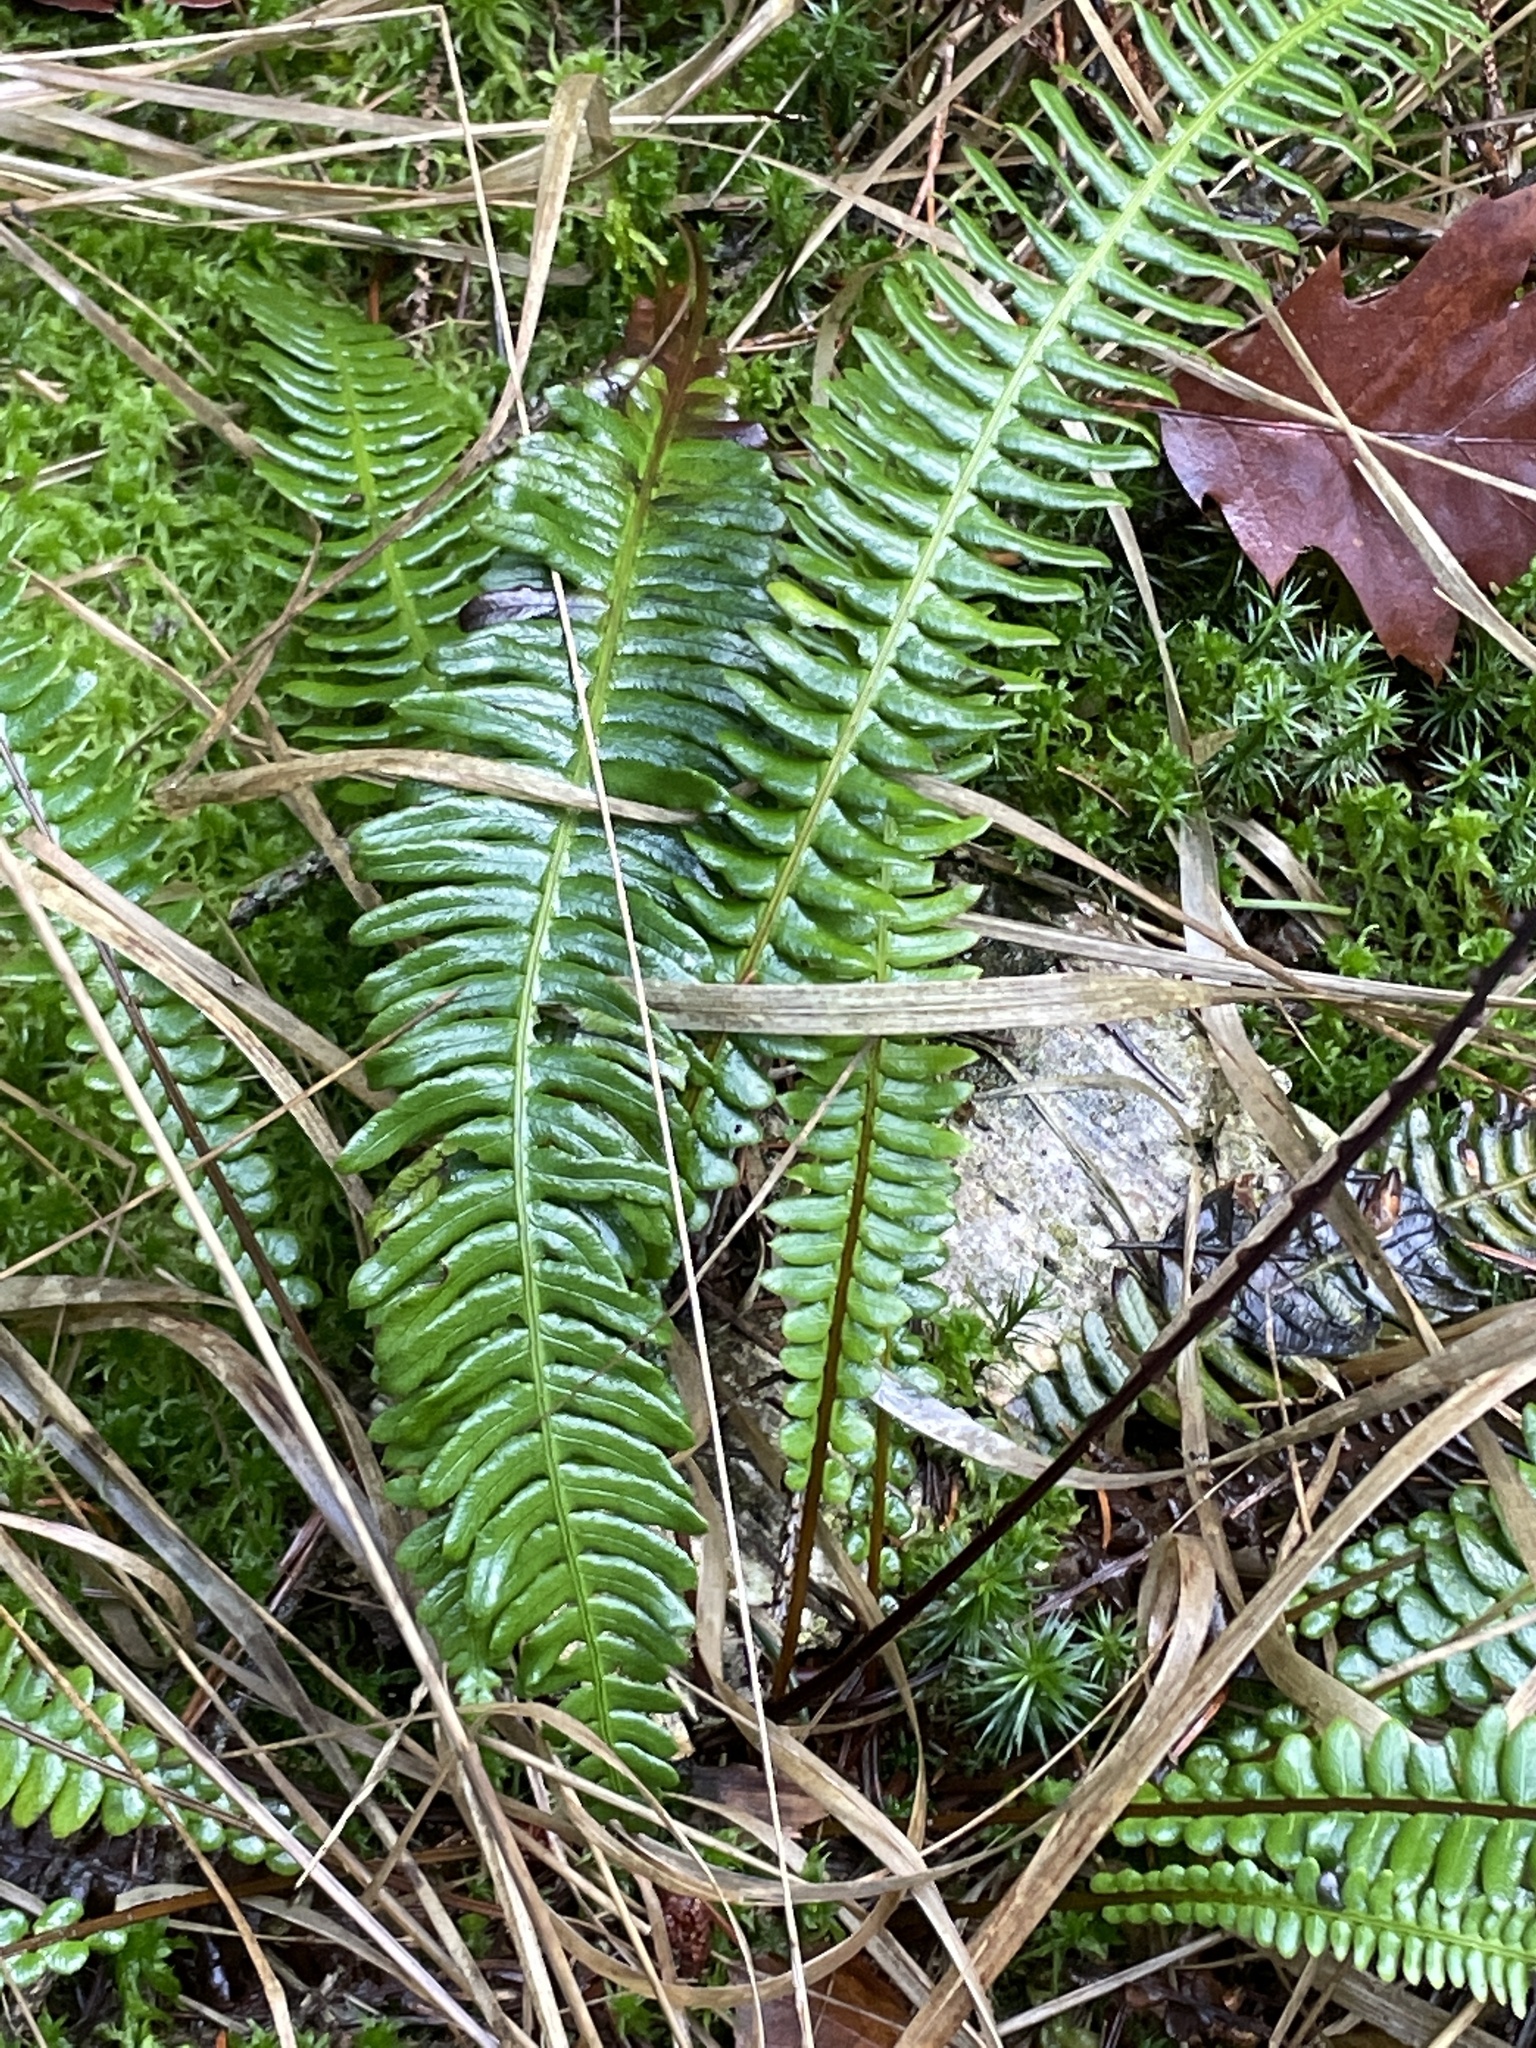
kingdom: Plantae
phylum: Tracheophyta
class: Polypodiopsida
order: Polypodiales
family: Blechnaceae
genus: Struthiopteris
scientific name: Struthiopteris spicant
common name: Deer fern
